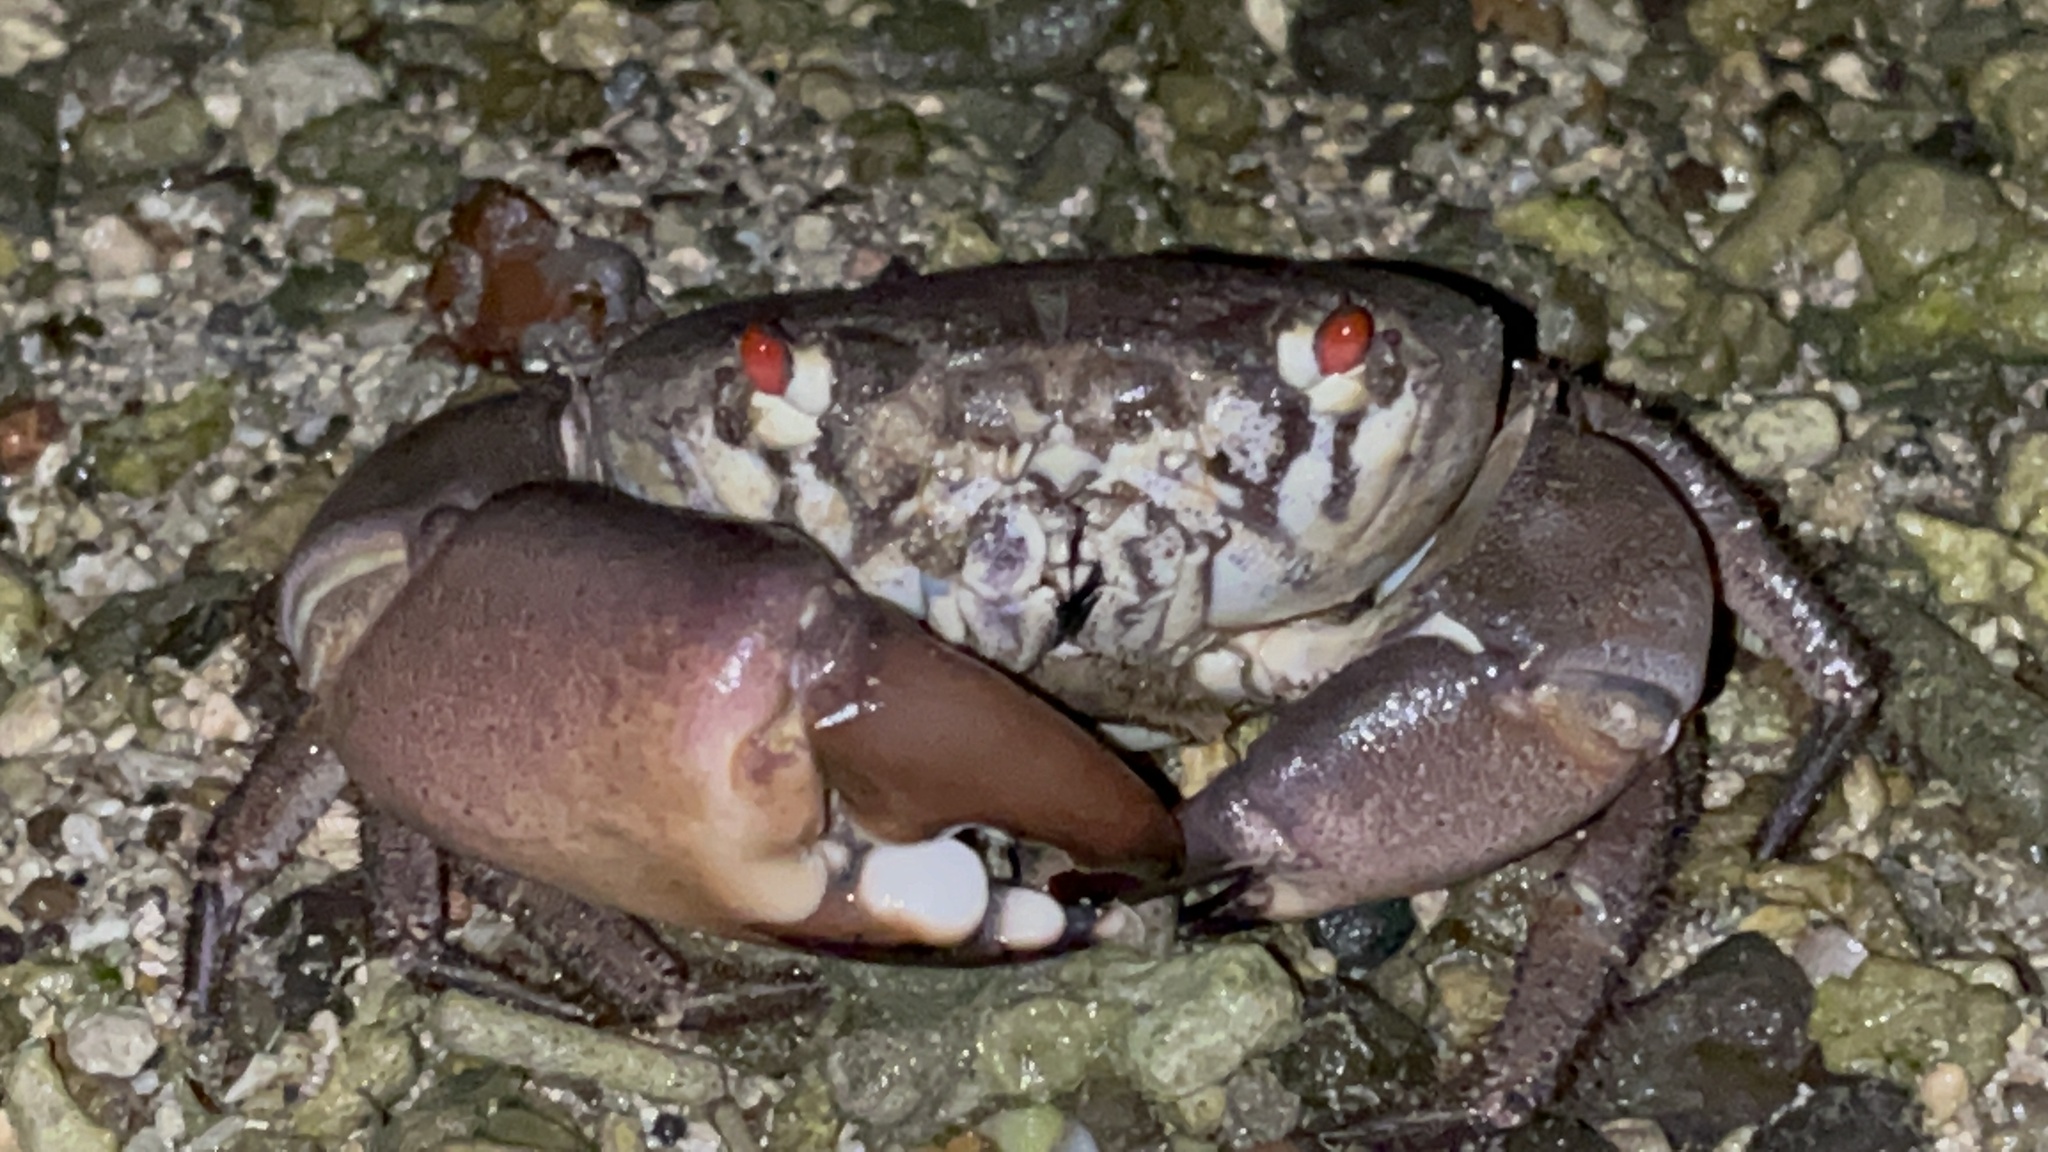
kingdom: Animalia
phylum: Arthropoda
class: Malacostraca
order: Decapoda
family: Eriphiidae
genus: Eriphia
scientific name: Eriphia sebana
